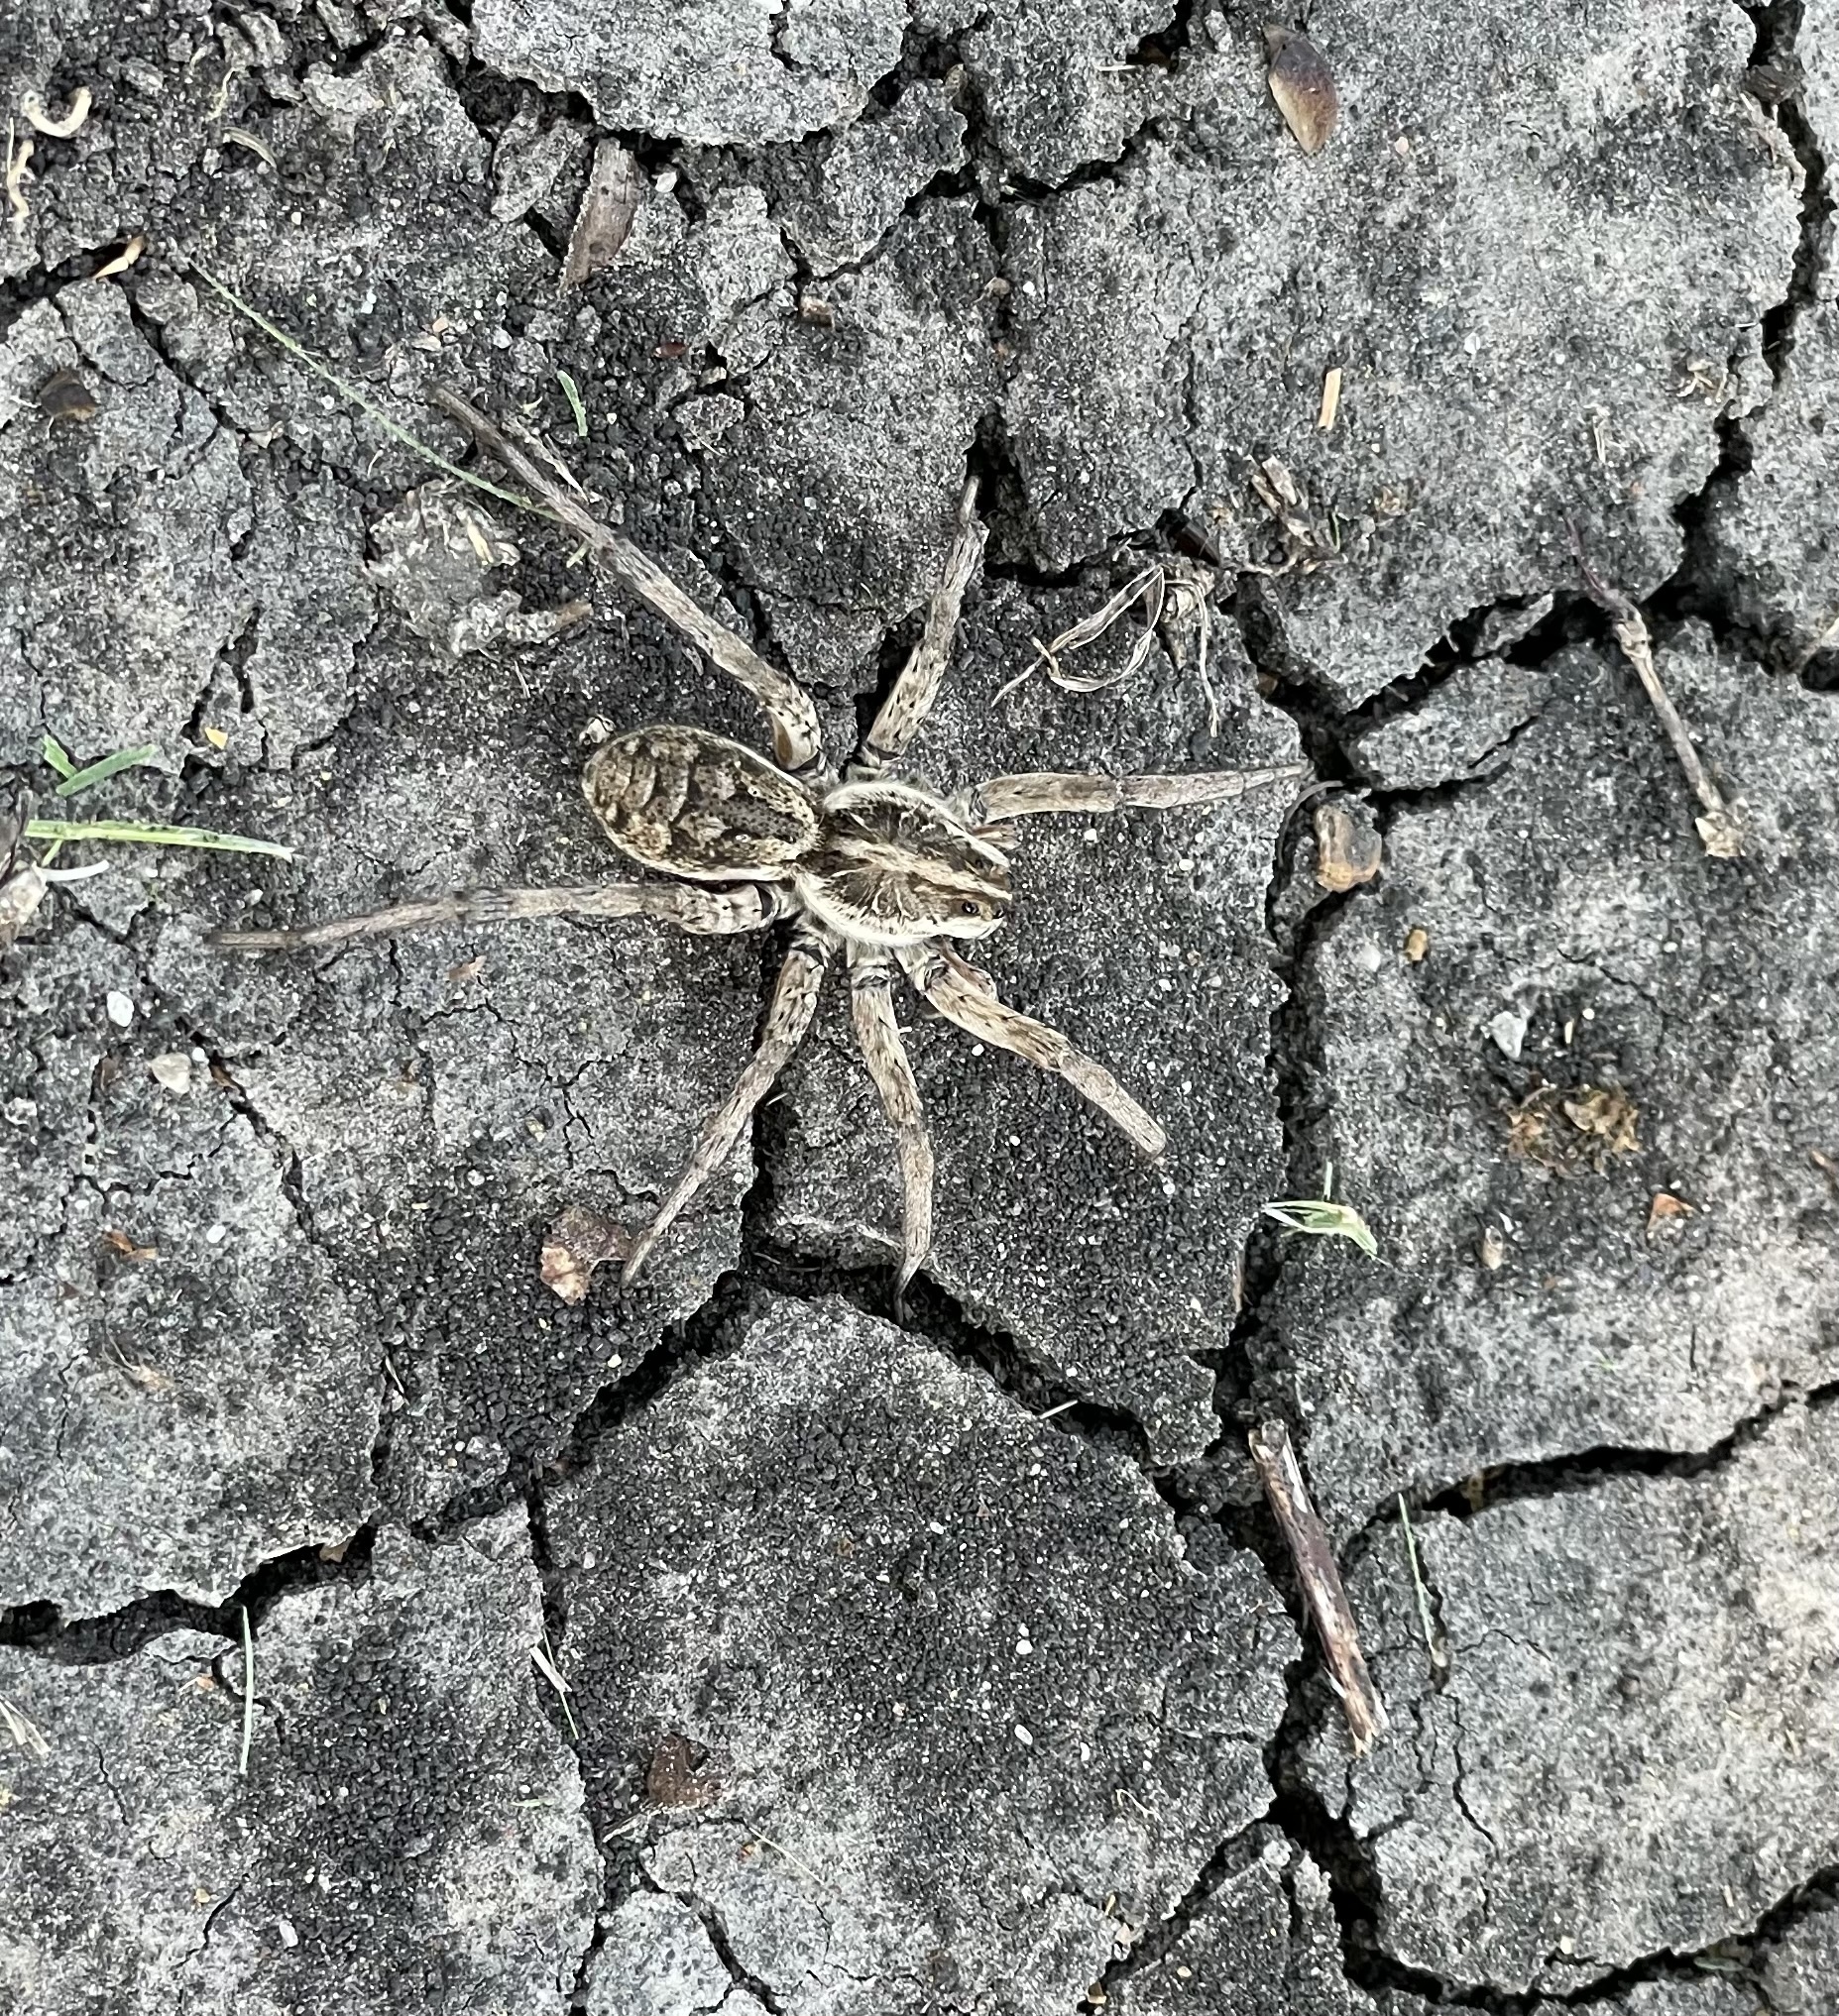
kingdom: Animalia
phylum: Arthropoda
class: Arachnida
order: Araneae
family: Lycosidae
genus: Hogna
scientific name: Hogna antelucana
